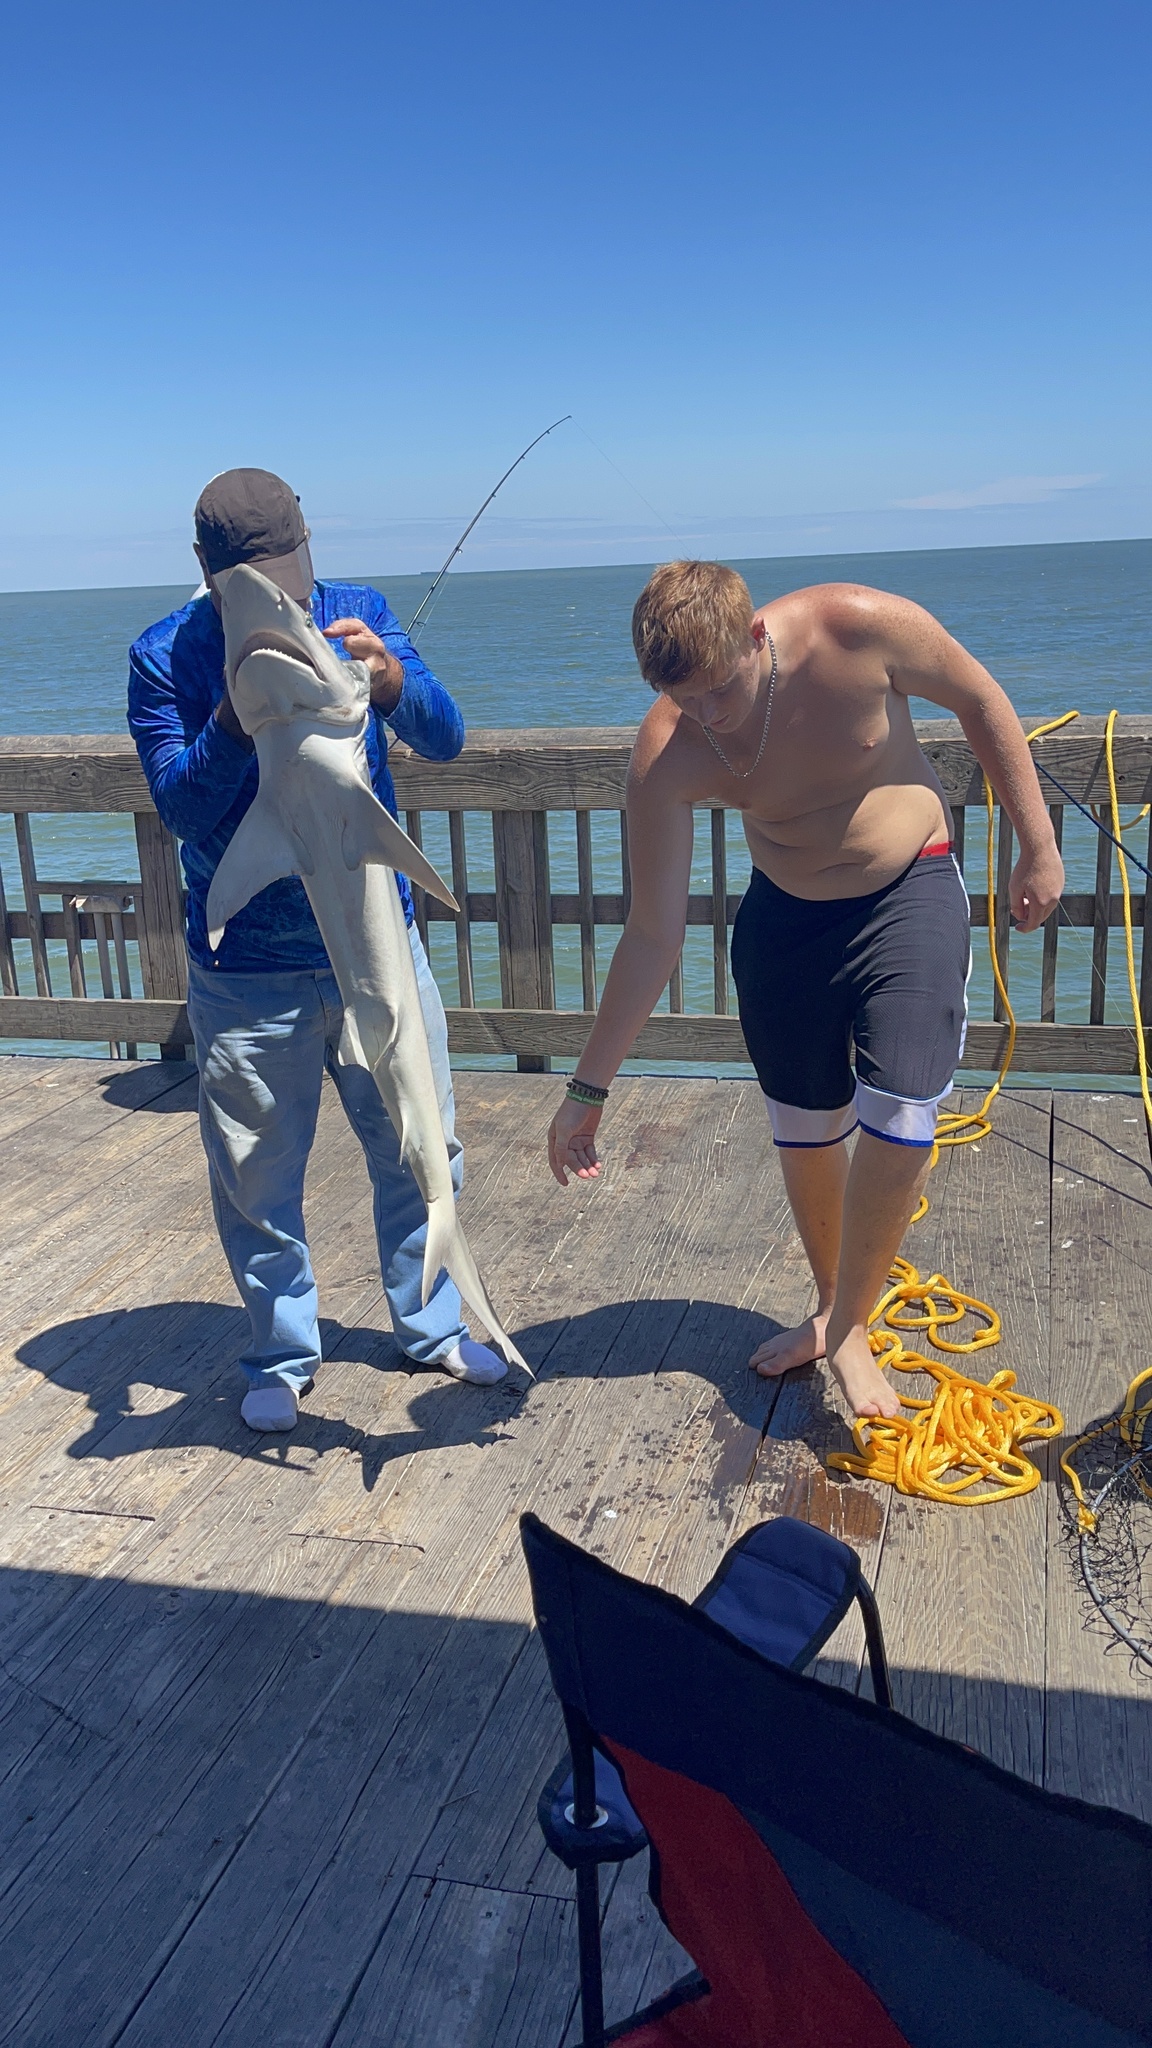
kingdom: Animalia
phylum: Chordata
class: Elasmobranchii
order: Carcharhiniformes
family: Carcharhinidae
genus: Carcharhinus
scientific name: Carcharhinus isodon
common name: Finetooth shark
